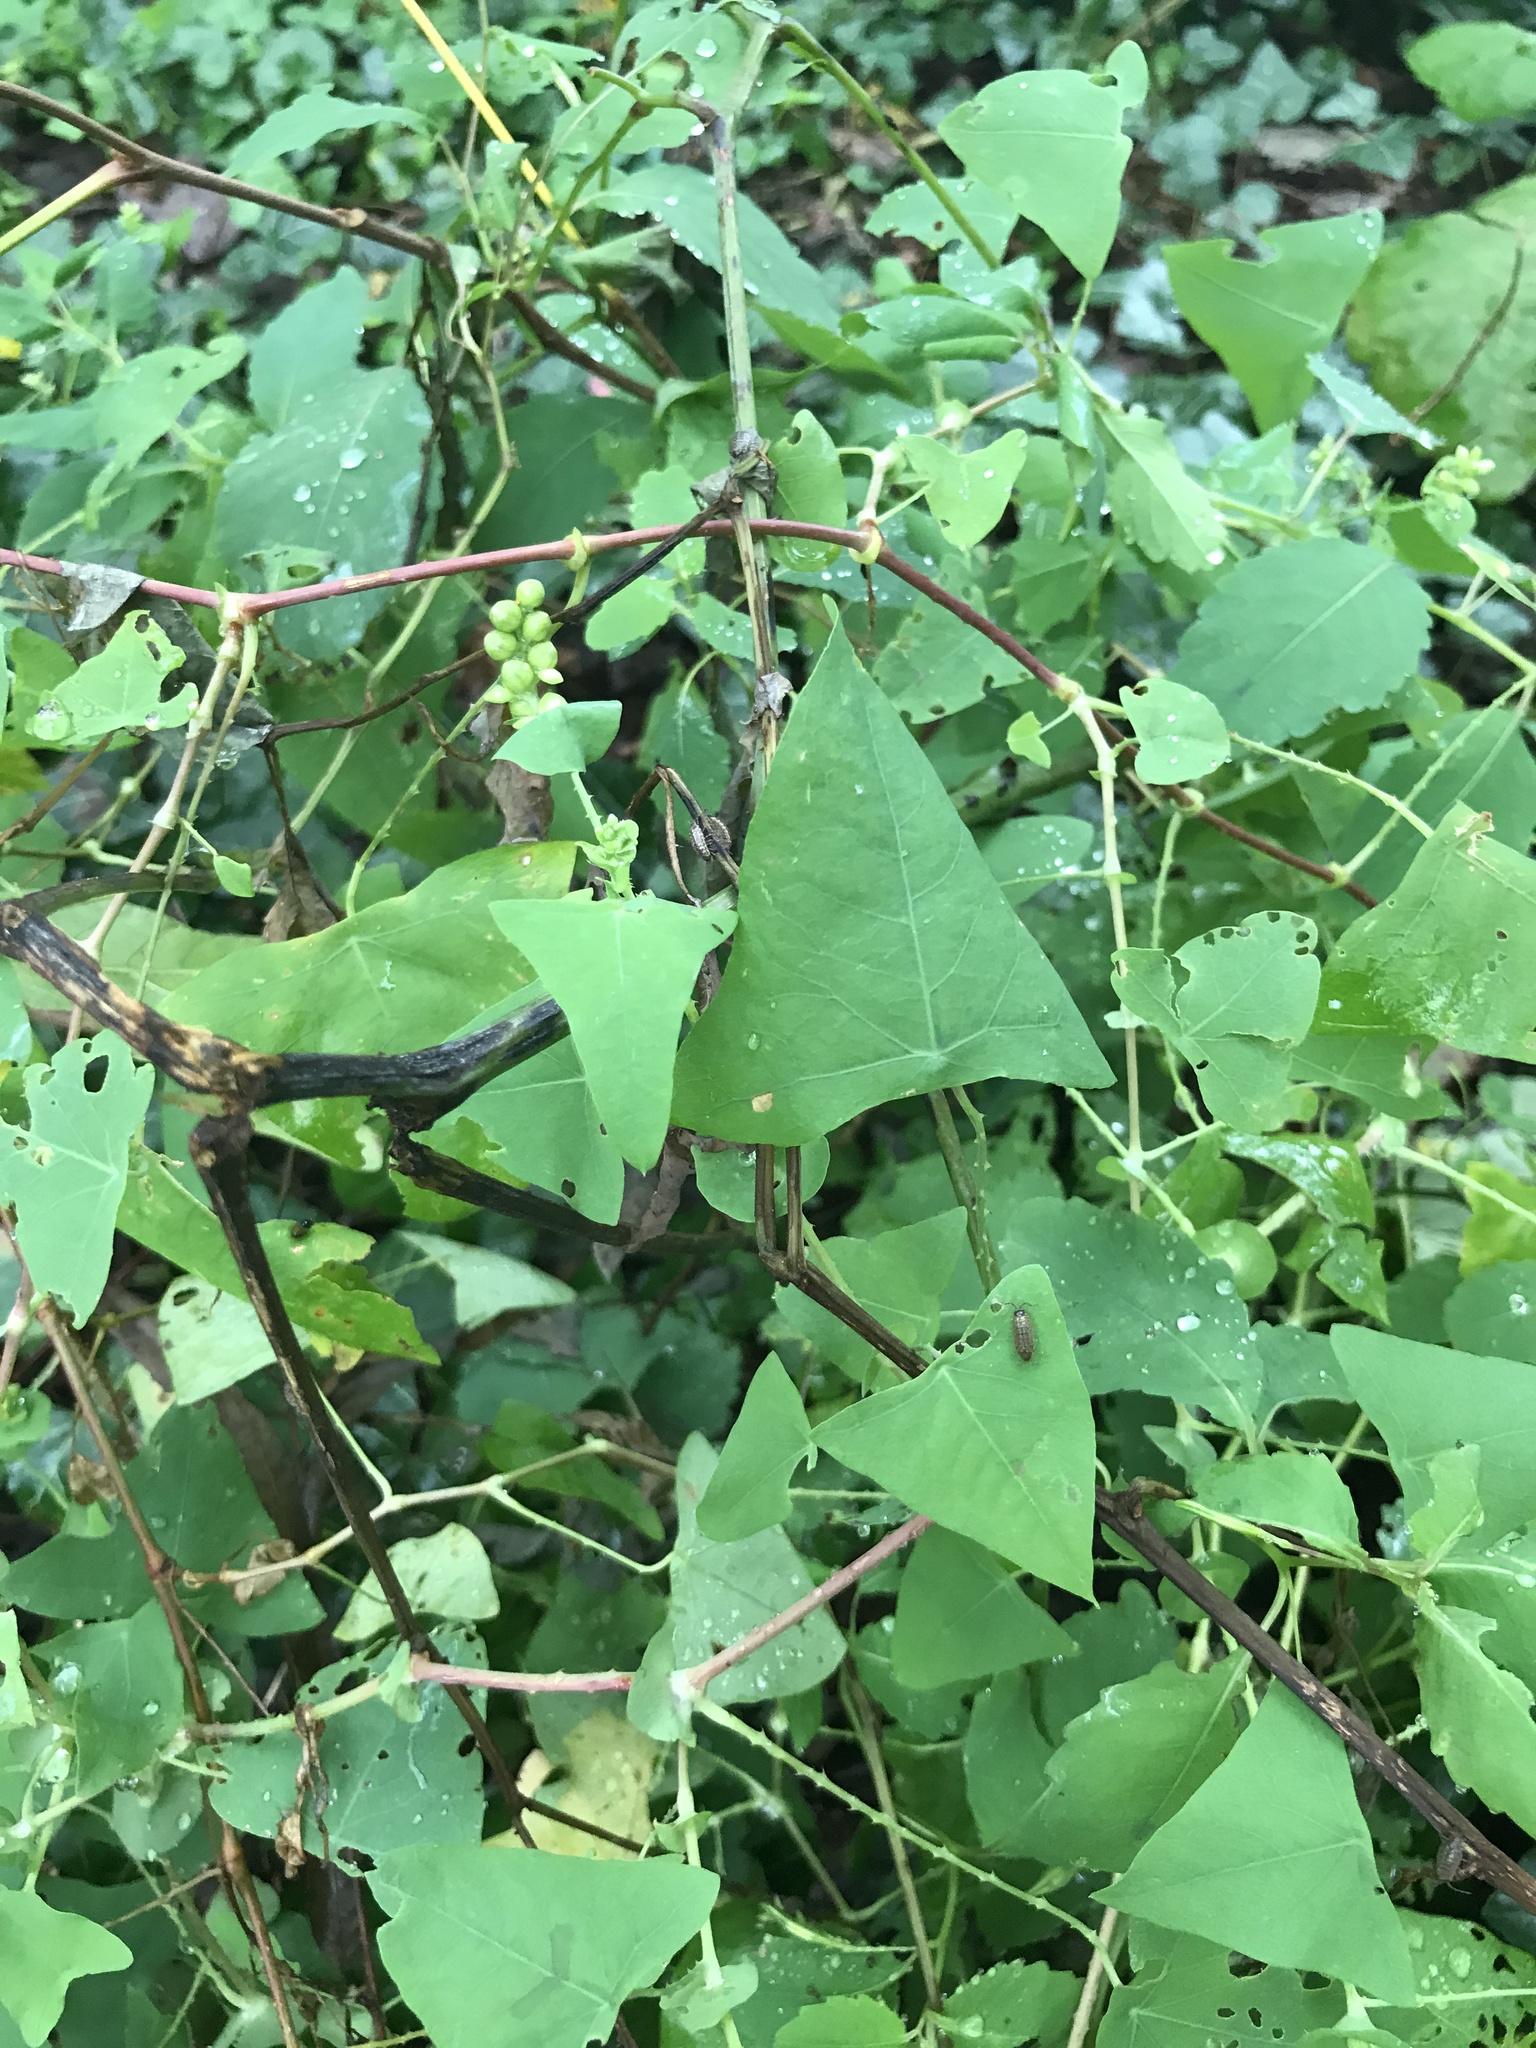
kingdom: Plantae
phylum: Tracheophyta
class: Magnoliopsida
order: Caryophyllales
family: Polygonaceae
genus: Persicaria
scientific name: Persicaria perfoliata
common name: Asiatic tearthumb
